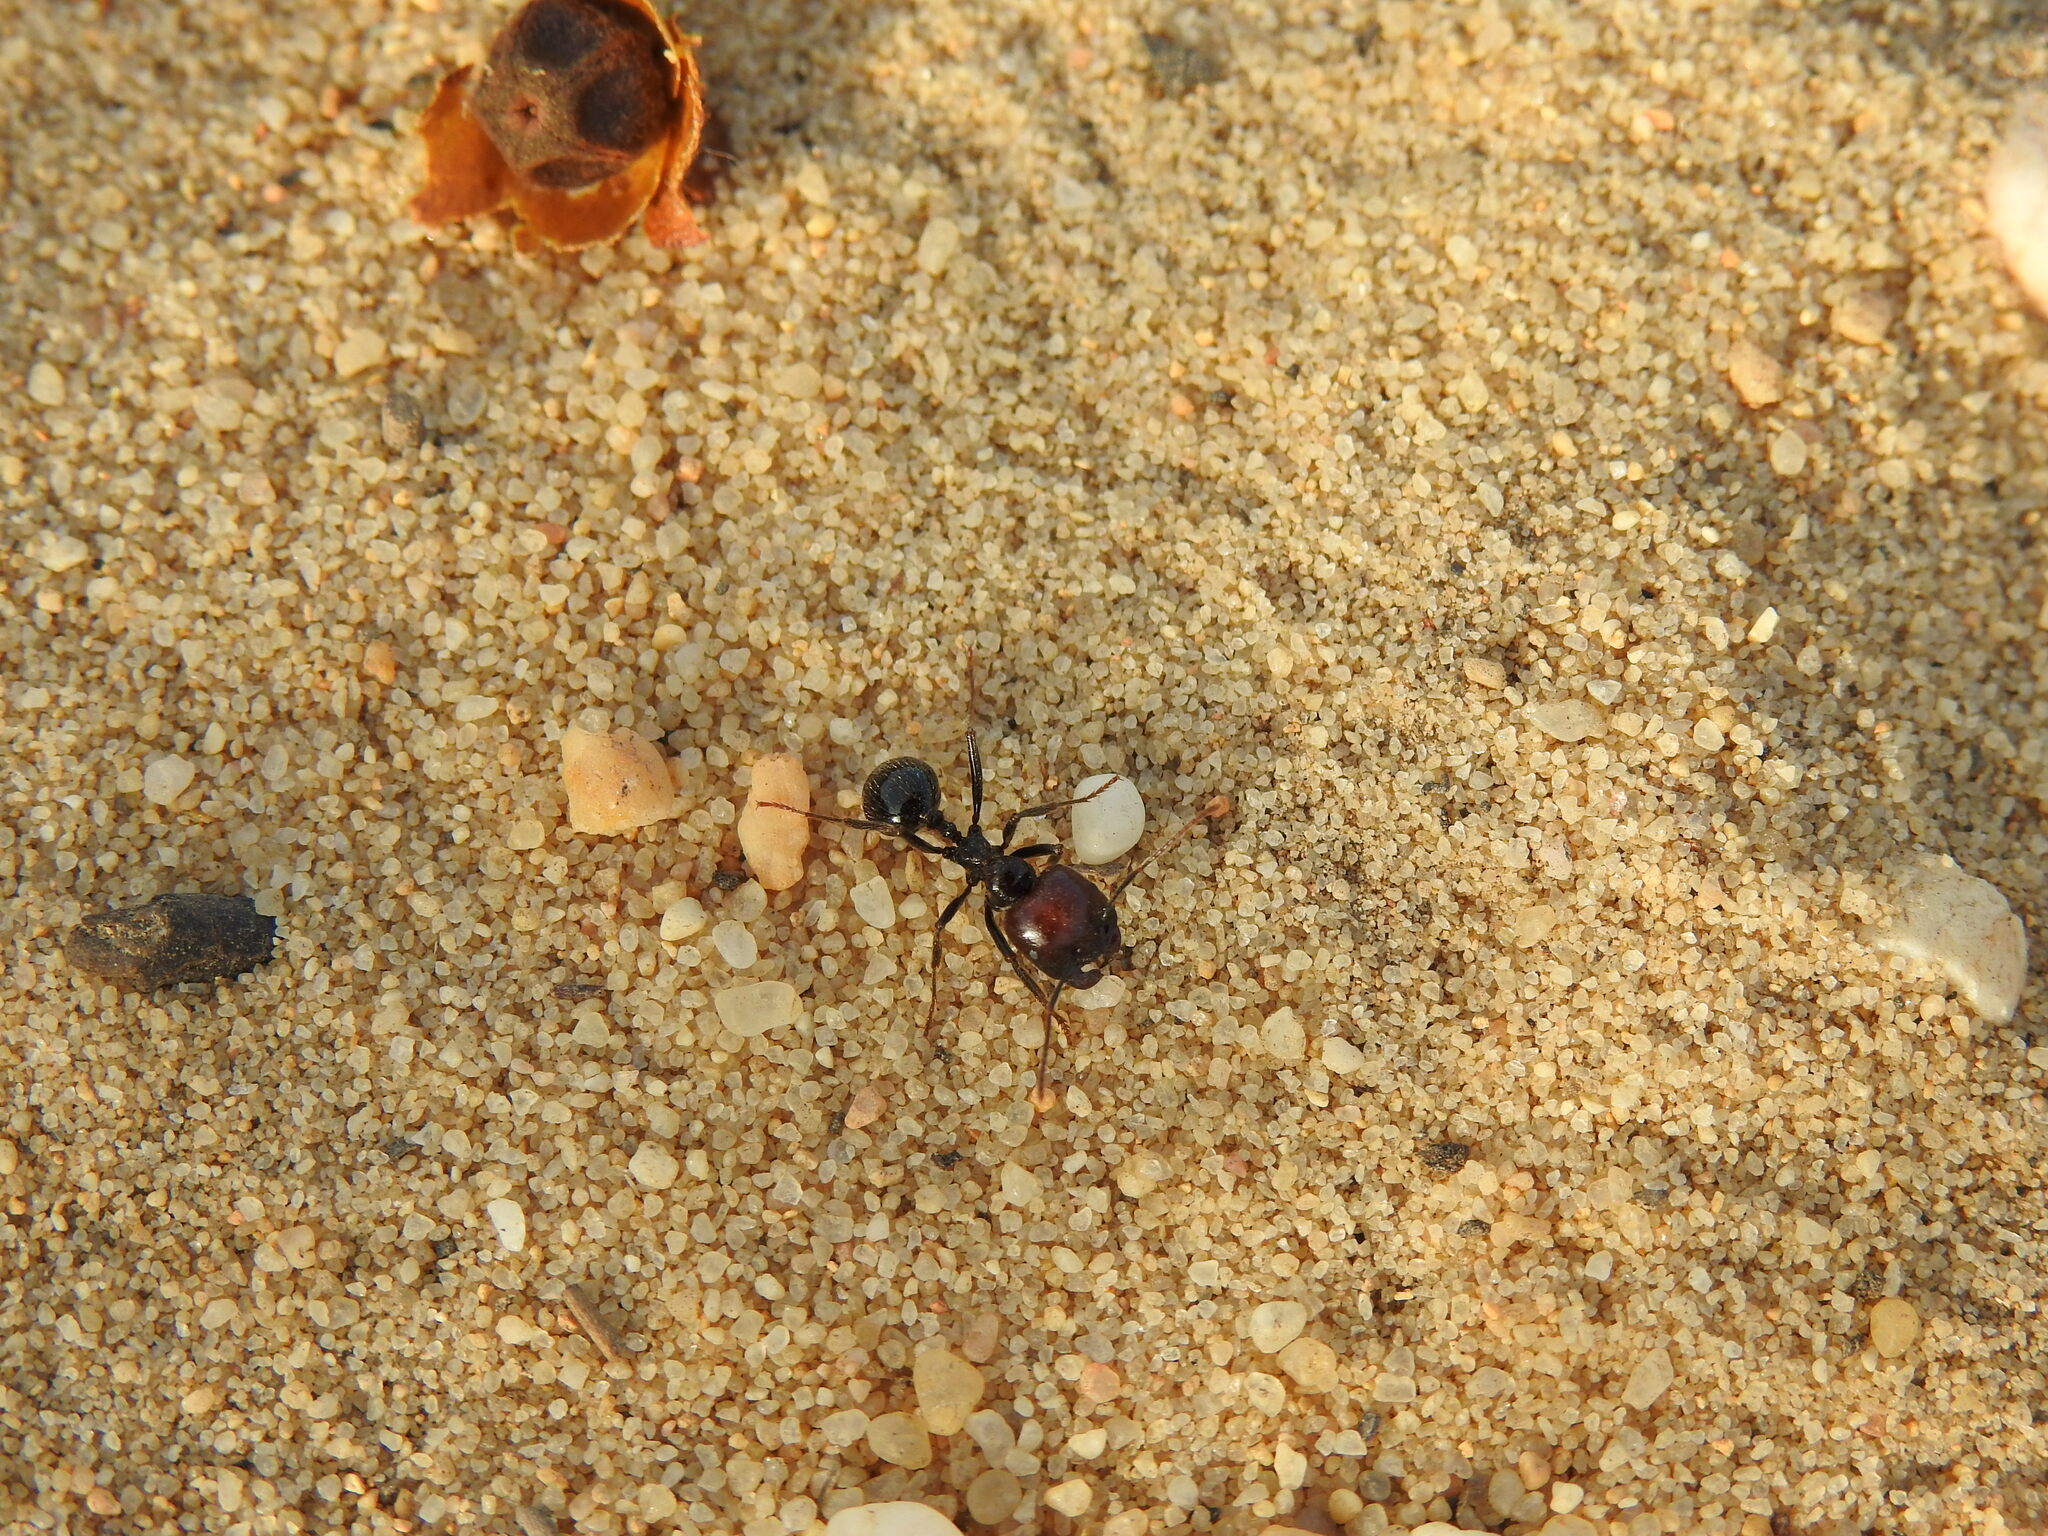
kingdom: Animalia
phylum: Arthropoda
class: Insecta
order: Hymenoptera
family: Formicidae
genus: Messor
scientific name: Messor barbarus
